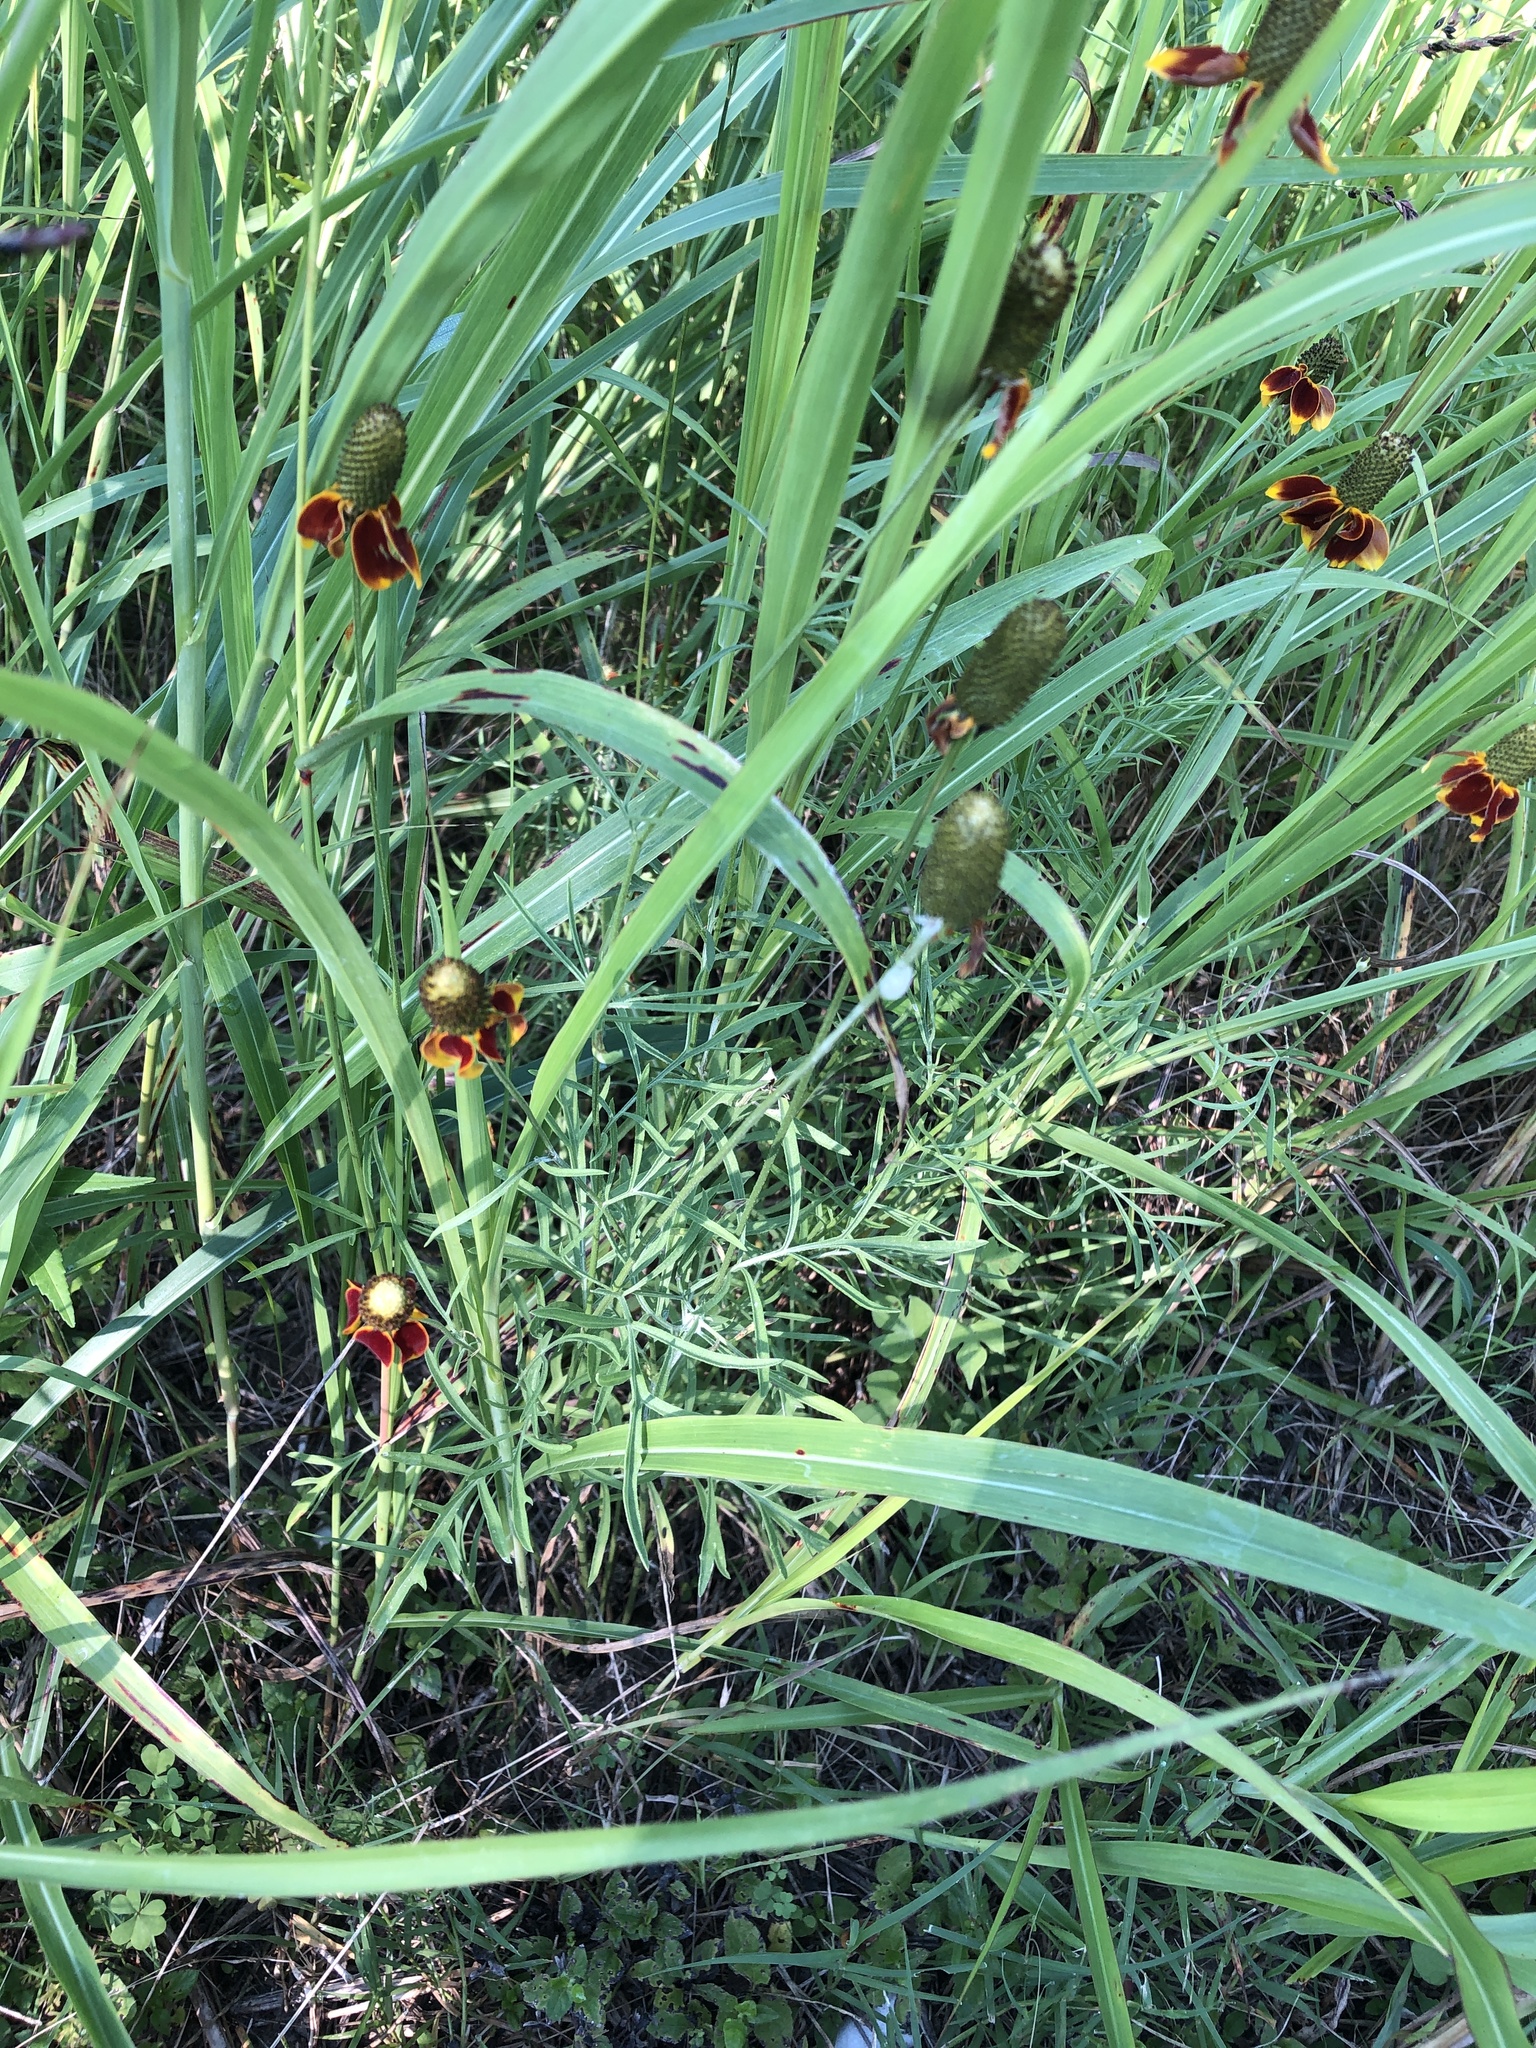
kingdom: Plantae
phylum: Tracheophyta
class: Magnoliopsida
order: Asterales
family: Asteraceae
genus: Ratibida
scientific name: Ratibida columnifera
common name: Prairie coneflower
